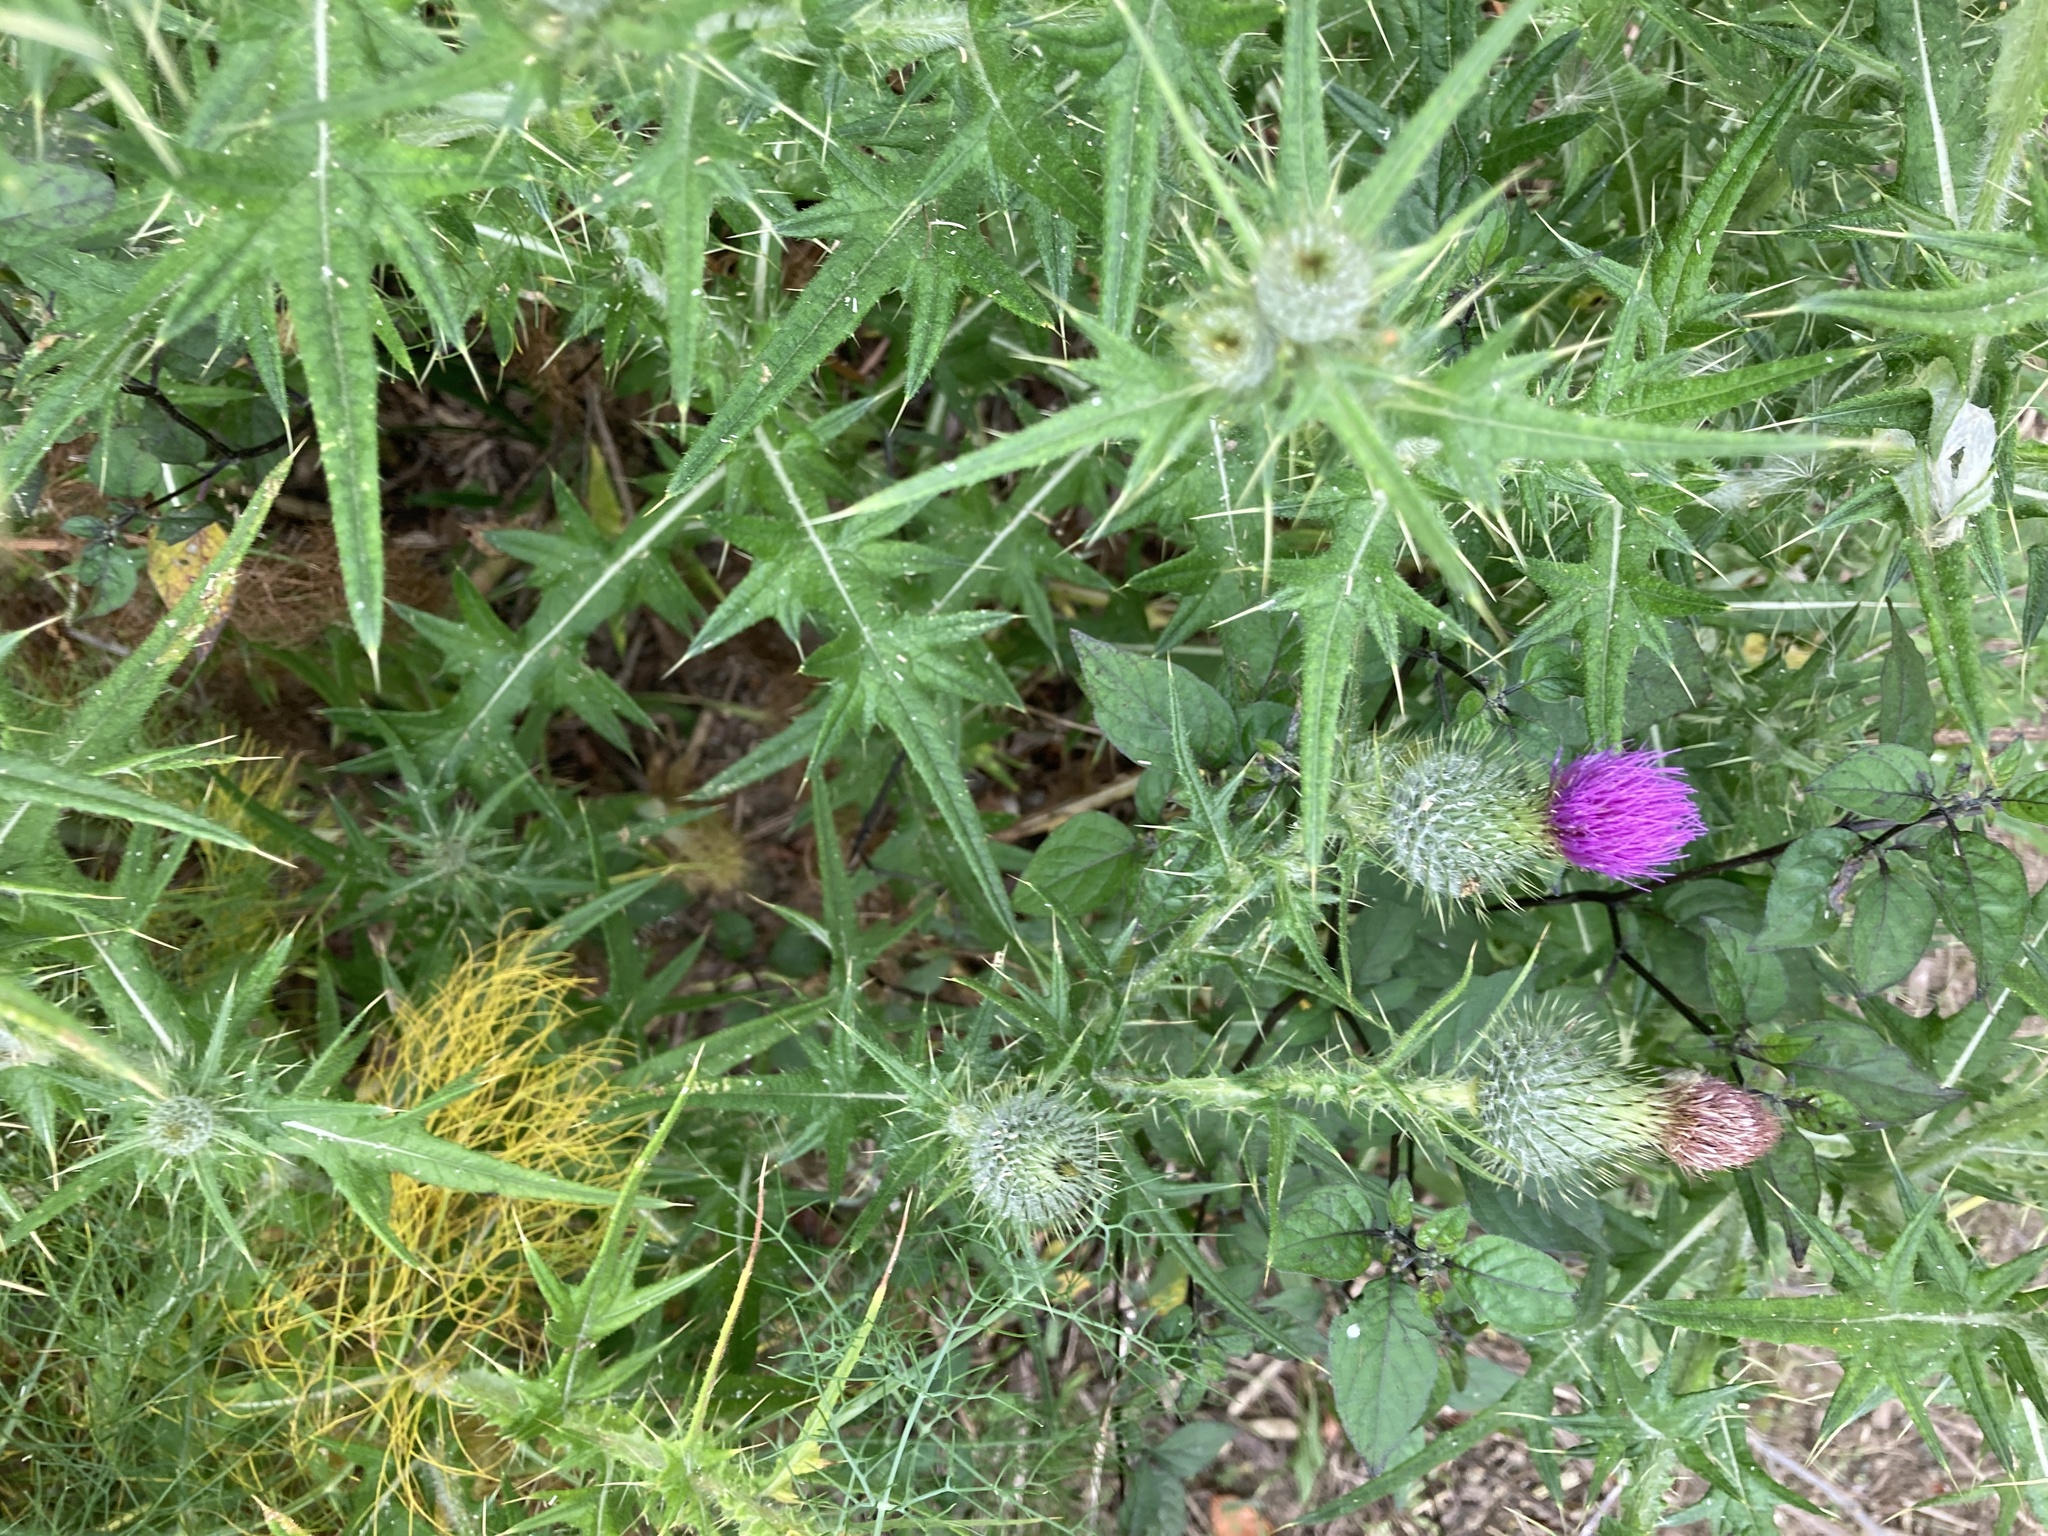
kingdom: Plantae
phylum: Tracheophyta
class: Magnoliopsida
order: Asterales
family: Asteraceae
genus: Cirsium
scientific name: Cirsium vulgare
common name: Bull thistle
